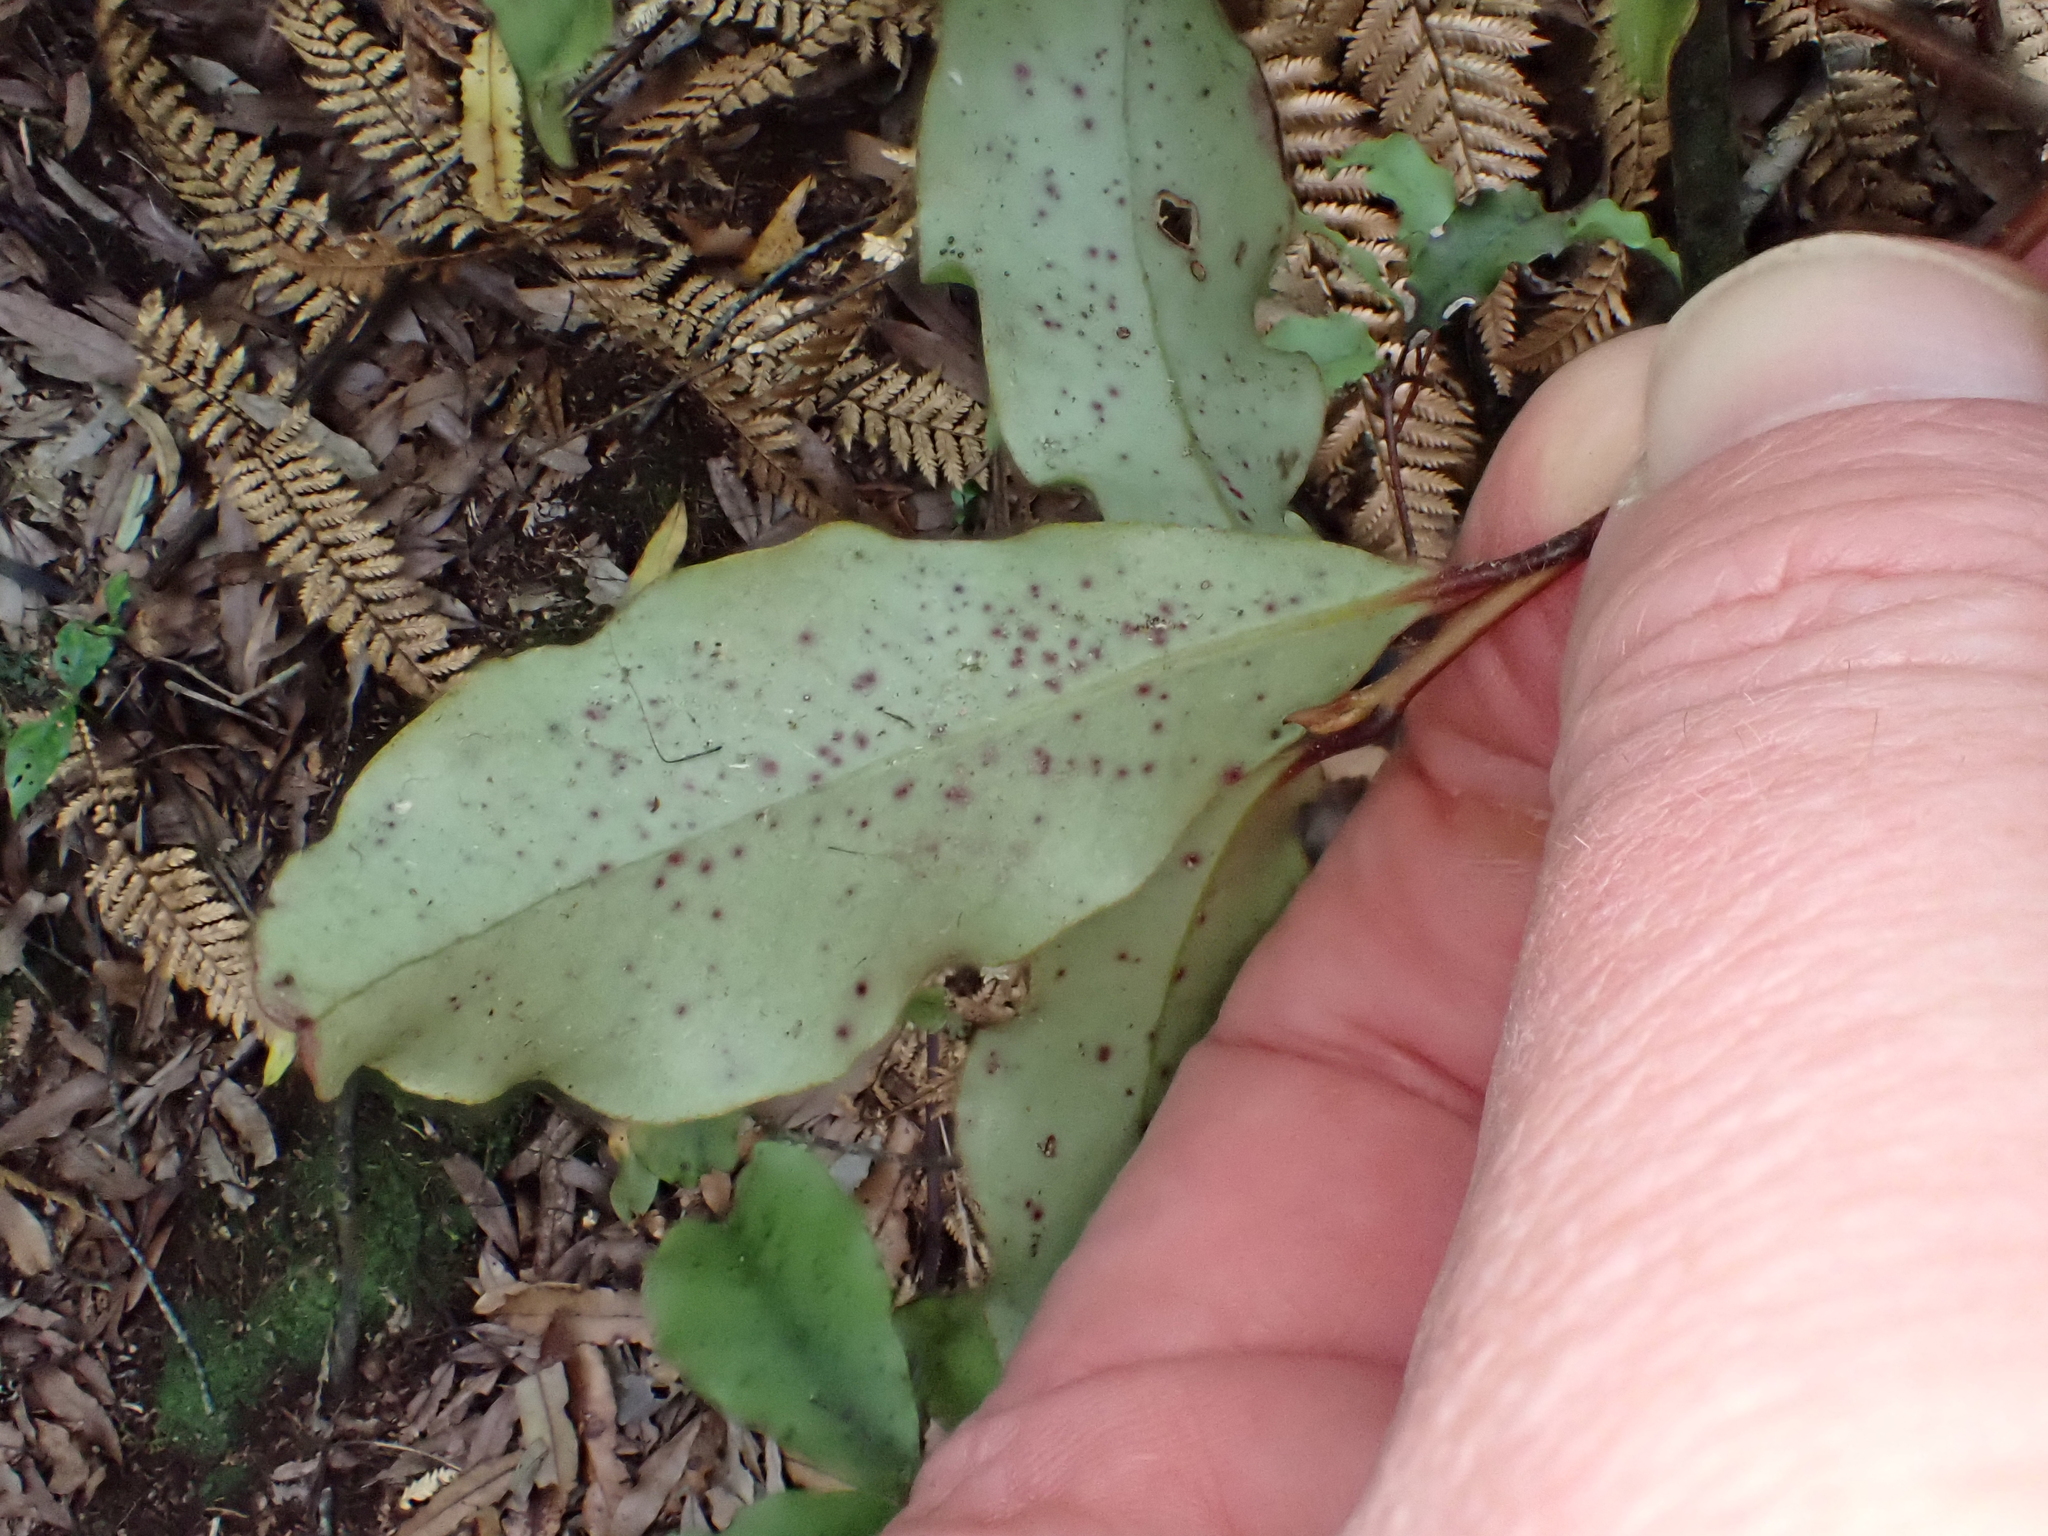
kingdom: Plantae
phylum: Tracheophyta
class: Magnoliopsida
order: Ericales
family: Primulaceae
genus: Myrsine
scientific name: Myrsine australis
